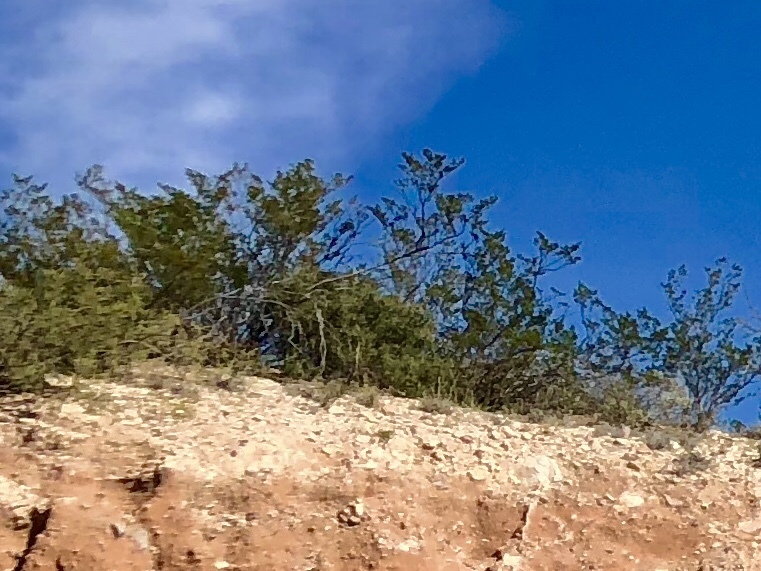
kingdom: Plantae
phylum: Tracheophyta
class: Magnoliopsida
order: Zygophyllales
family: Zygophyllaceae
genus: Larrea
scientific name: Larrea tridentata
